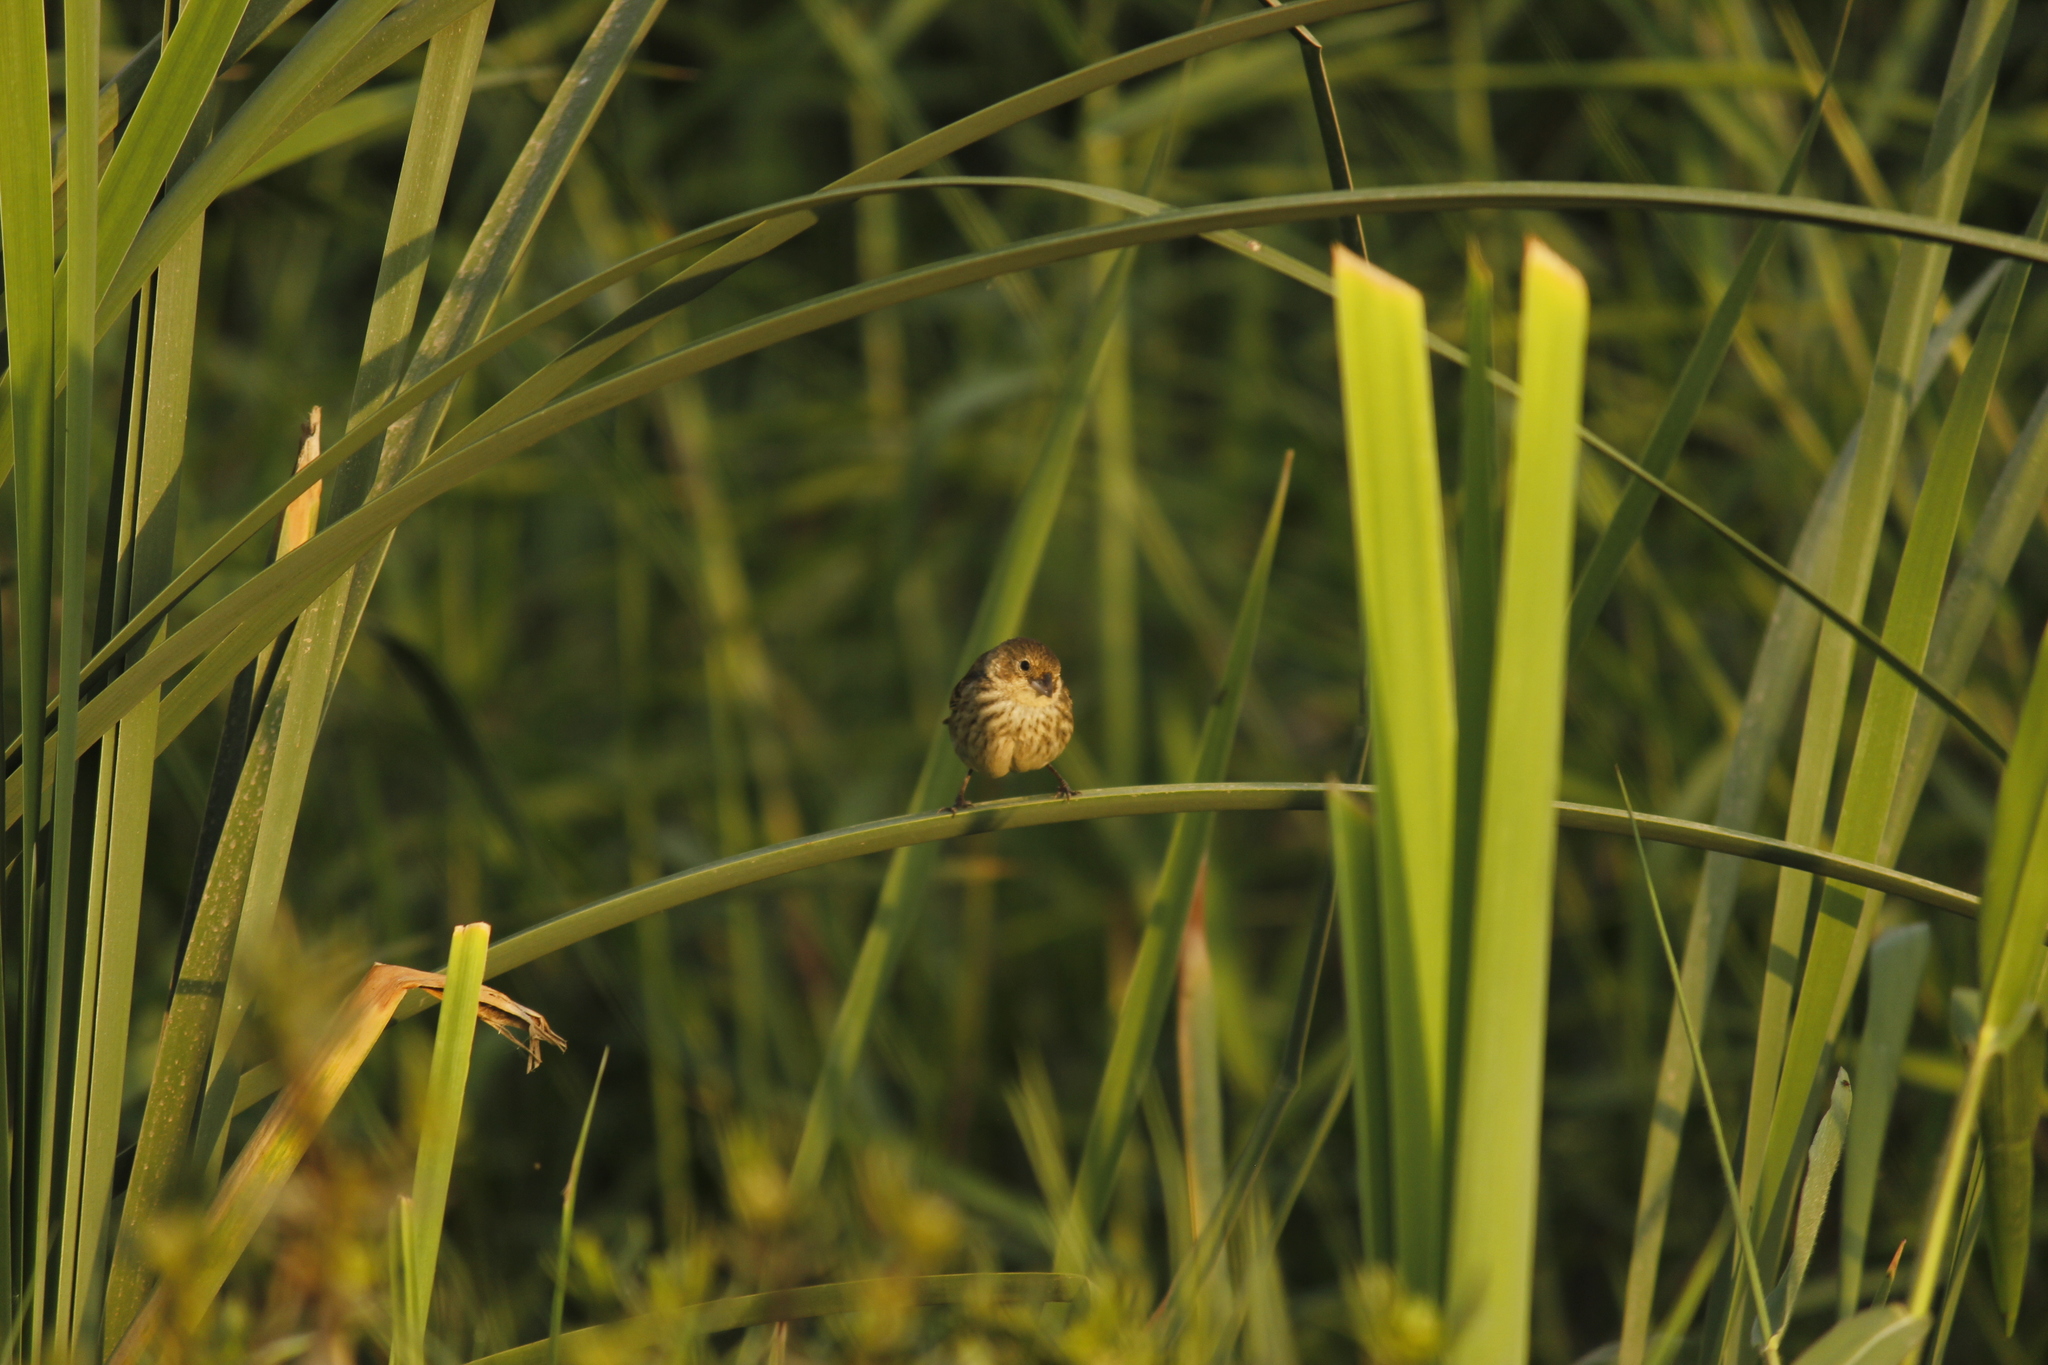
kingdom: Animalia
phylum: Chordata
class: Aves
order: Passeriformes
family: Thraupidae
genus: Volatinia
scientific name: Volatinia jacarina
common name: Blue-black grassquit
